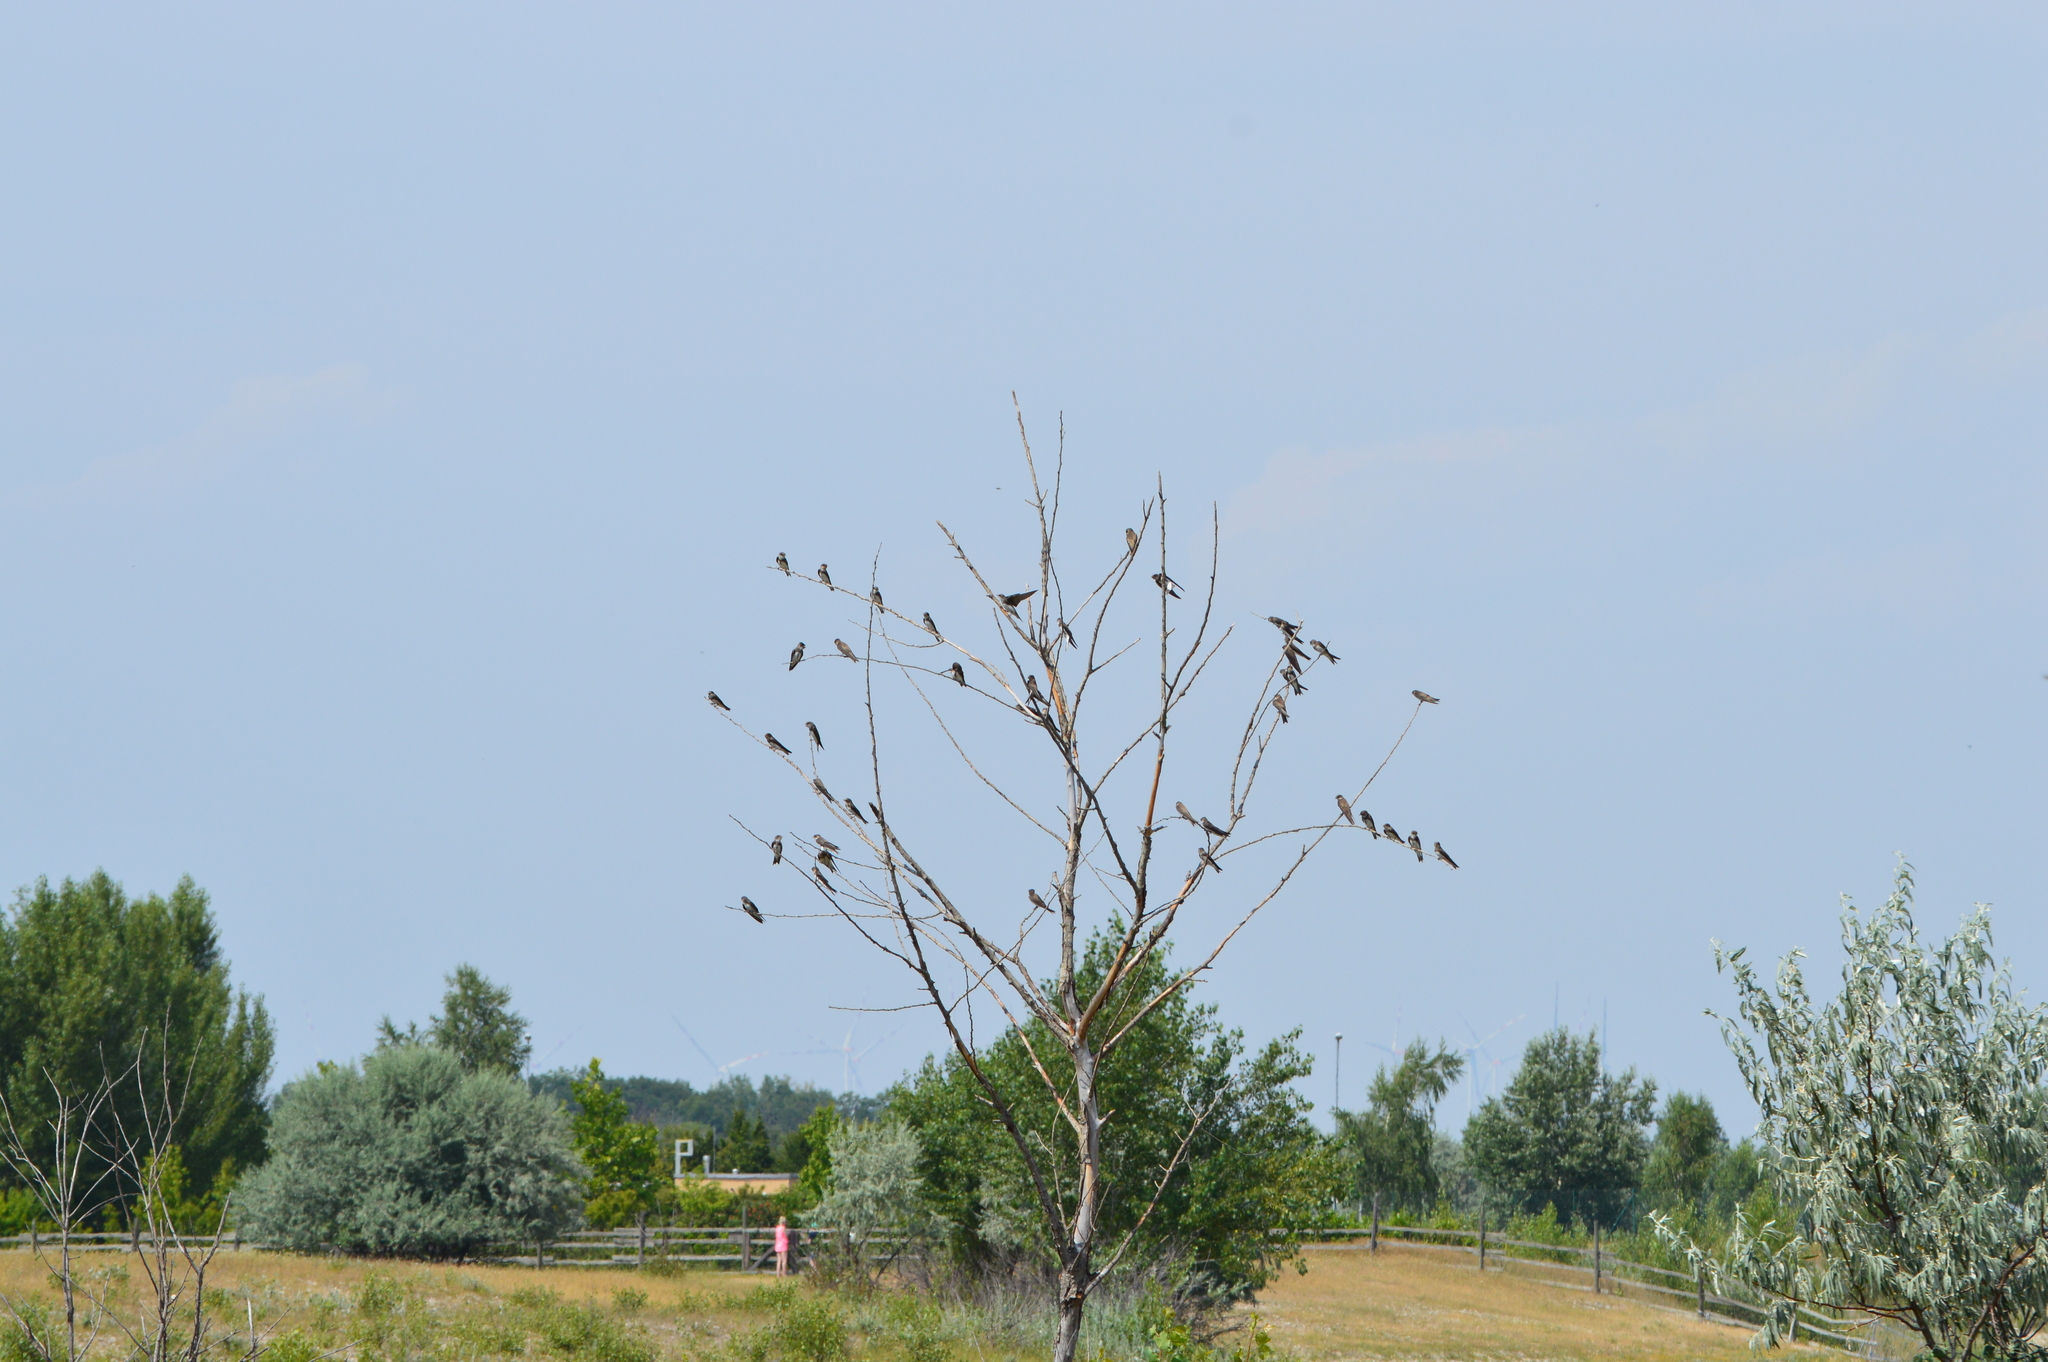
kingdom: Animalia
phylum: Chordata
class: Aves
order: Passeriformes
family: Hirundinidae
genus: Riparia
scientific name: Riparia riparia
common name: Sand martin
